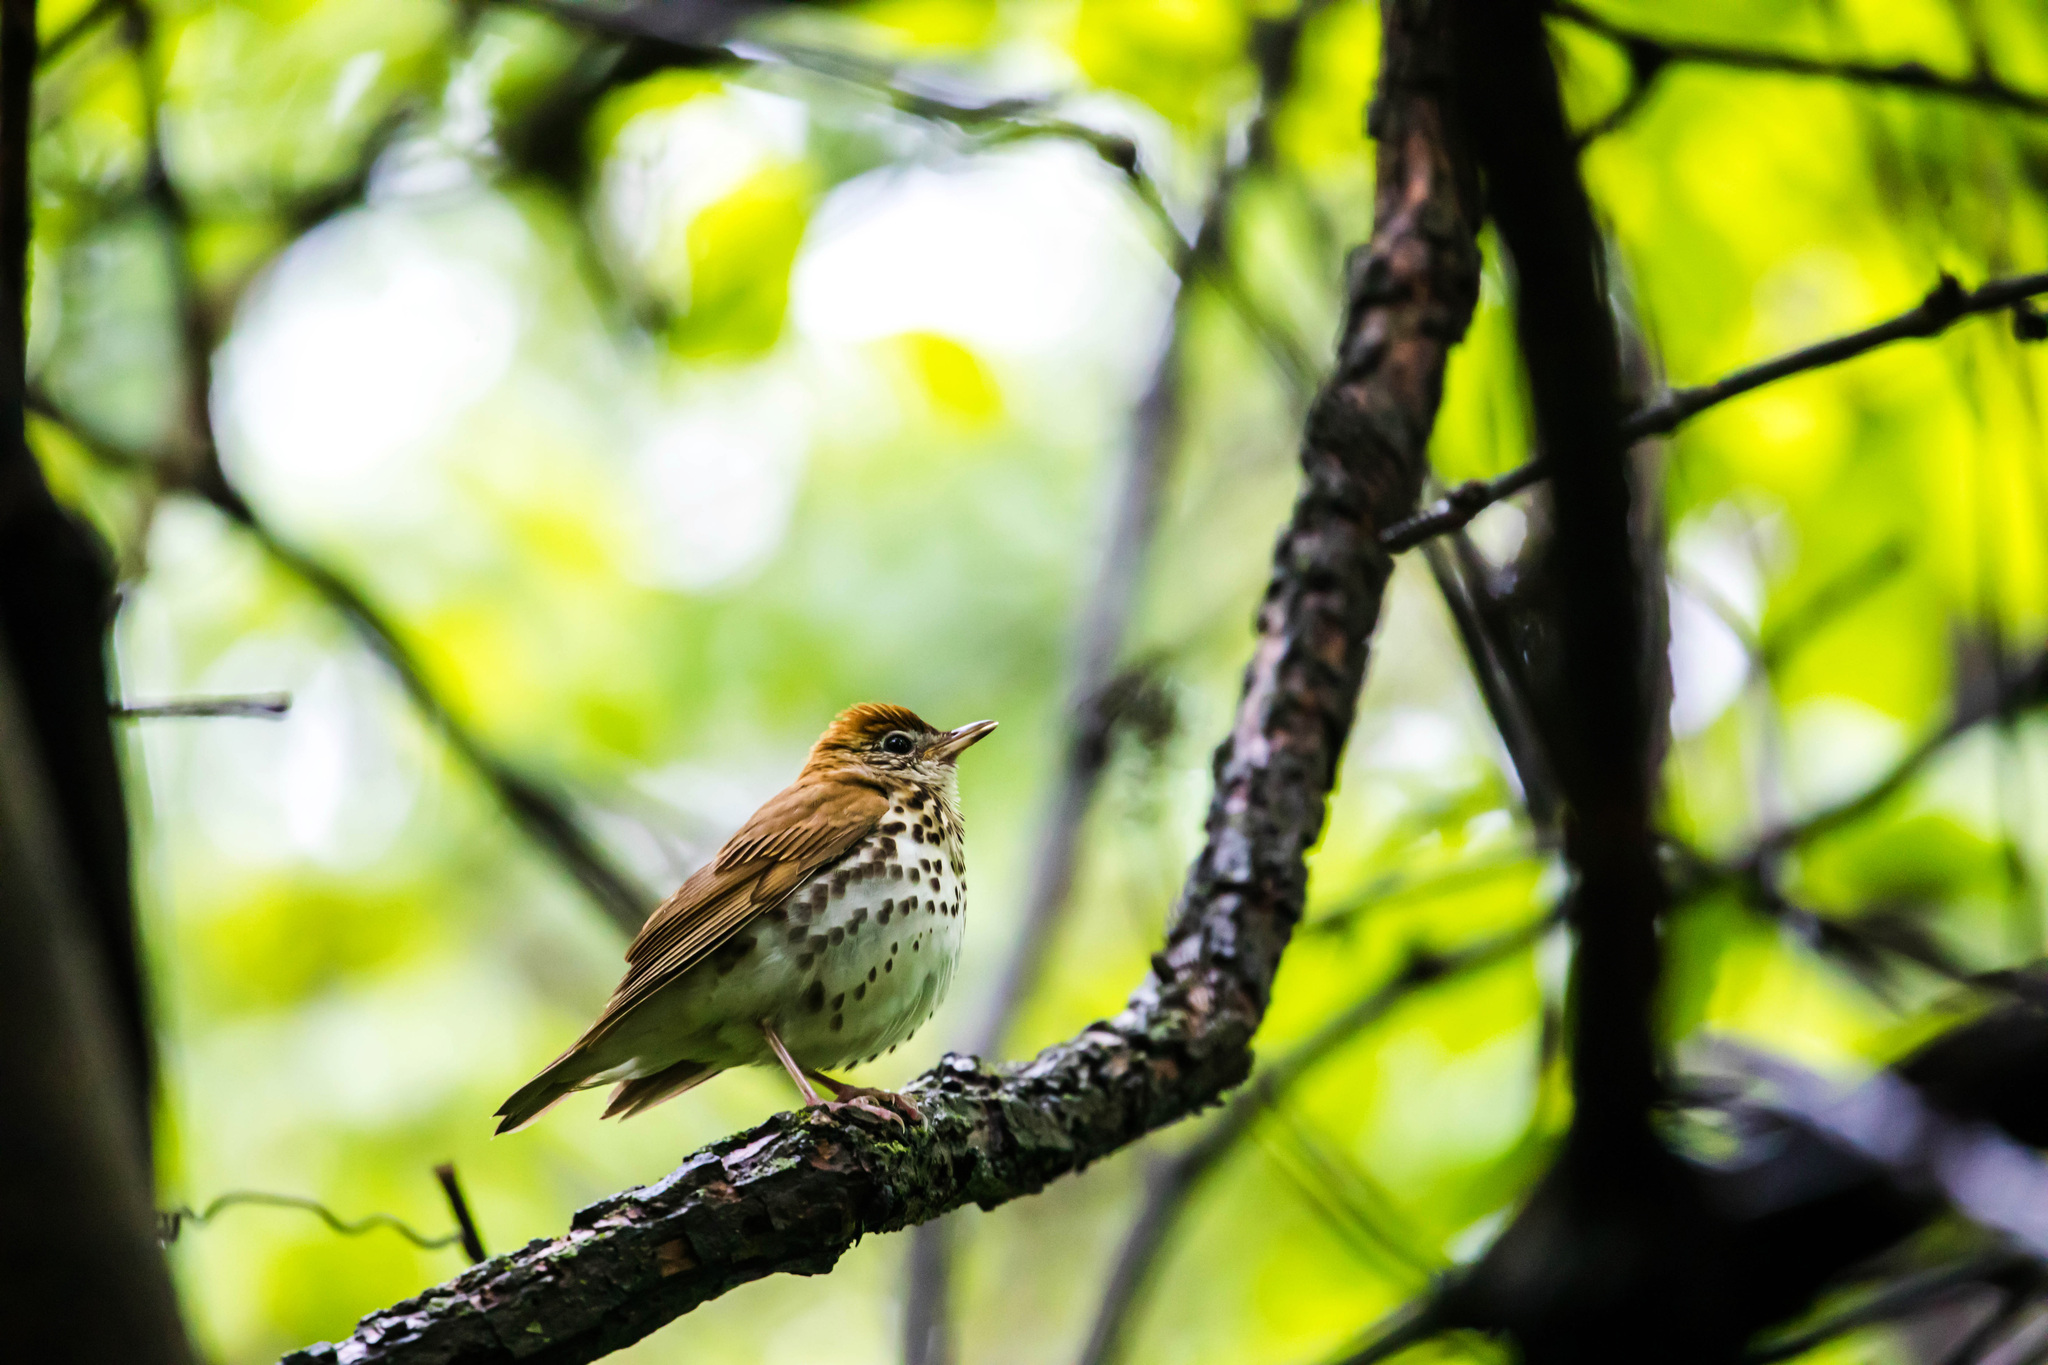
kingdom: Animalia
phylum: Chordata
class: Aves
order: Passeriformes
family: Turdidae
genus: Hylocichla
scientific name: Hylocichla mustelina
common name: Wood thrush
